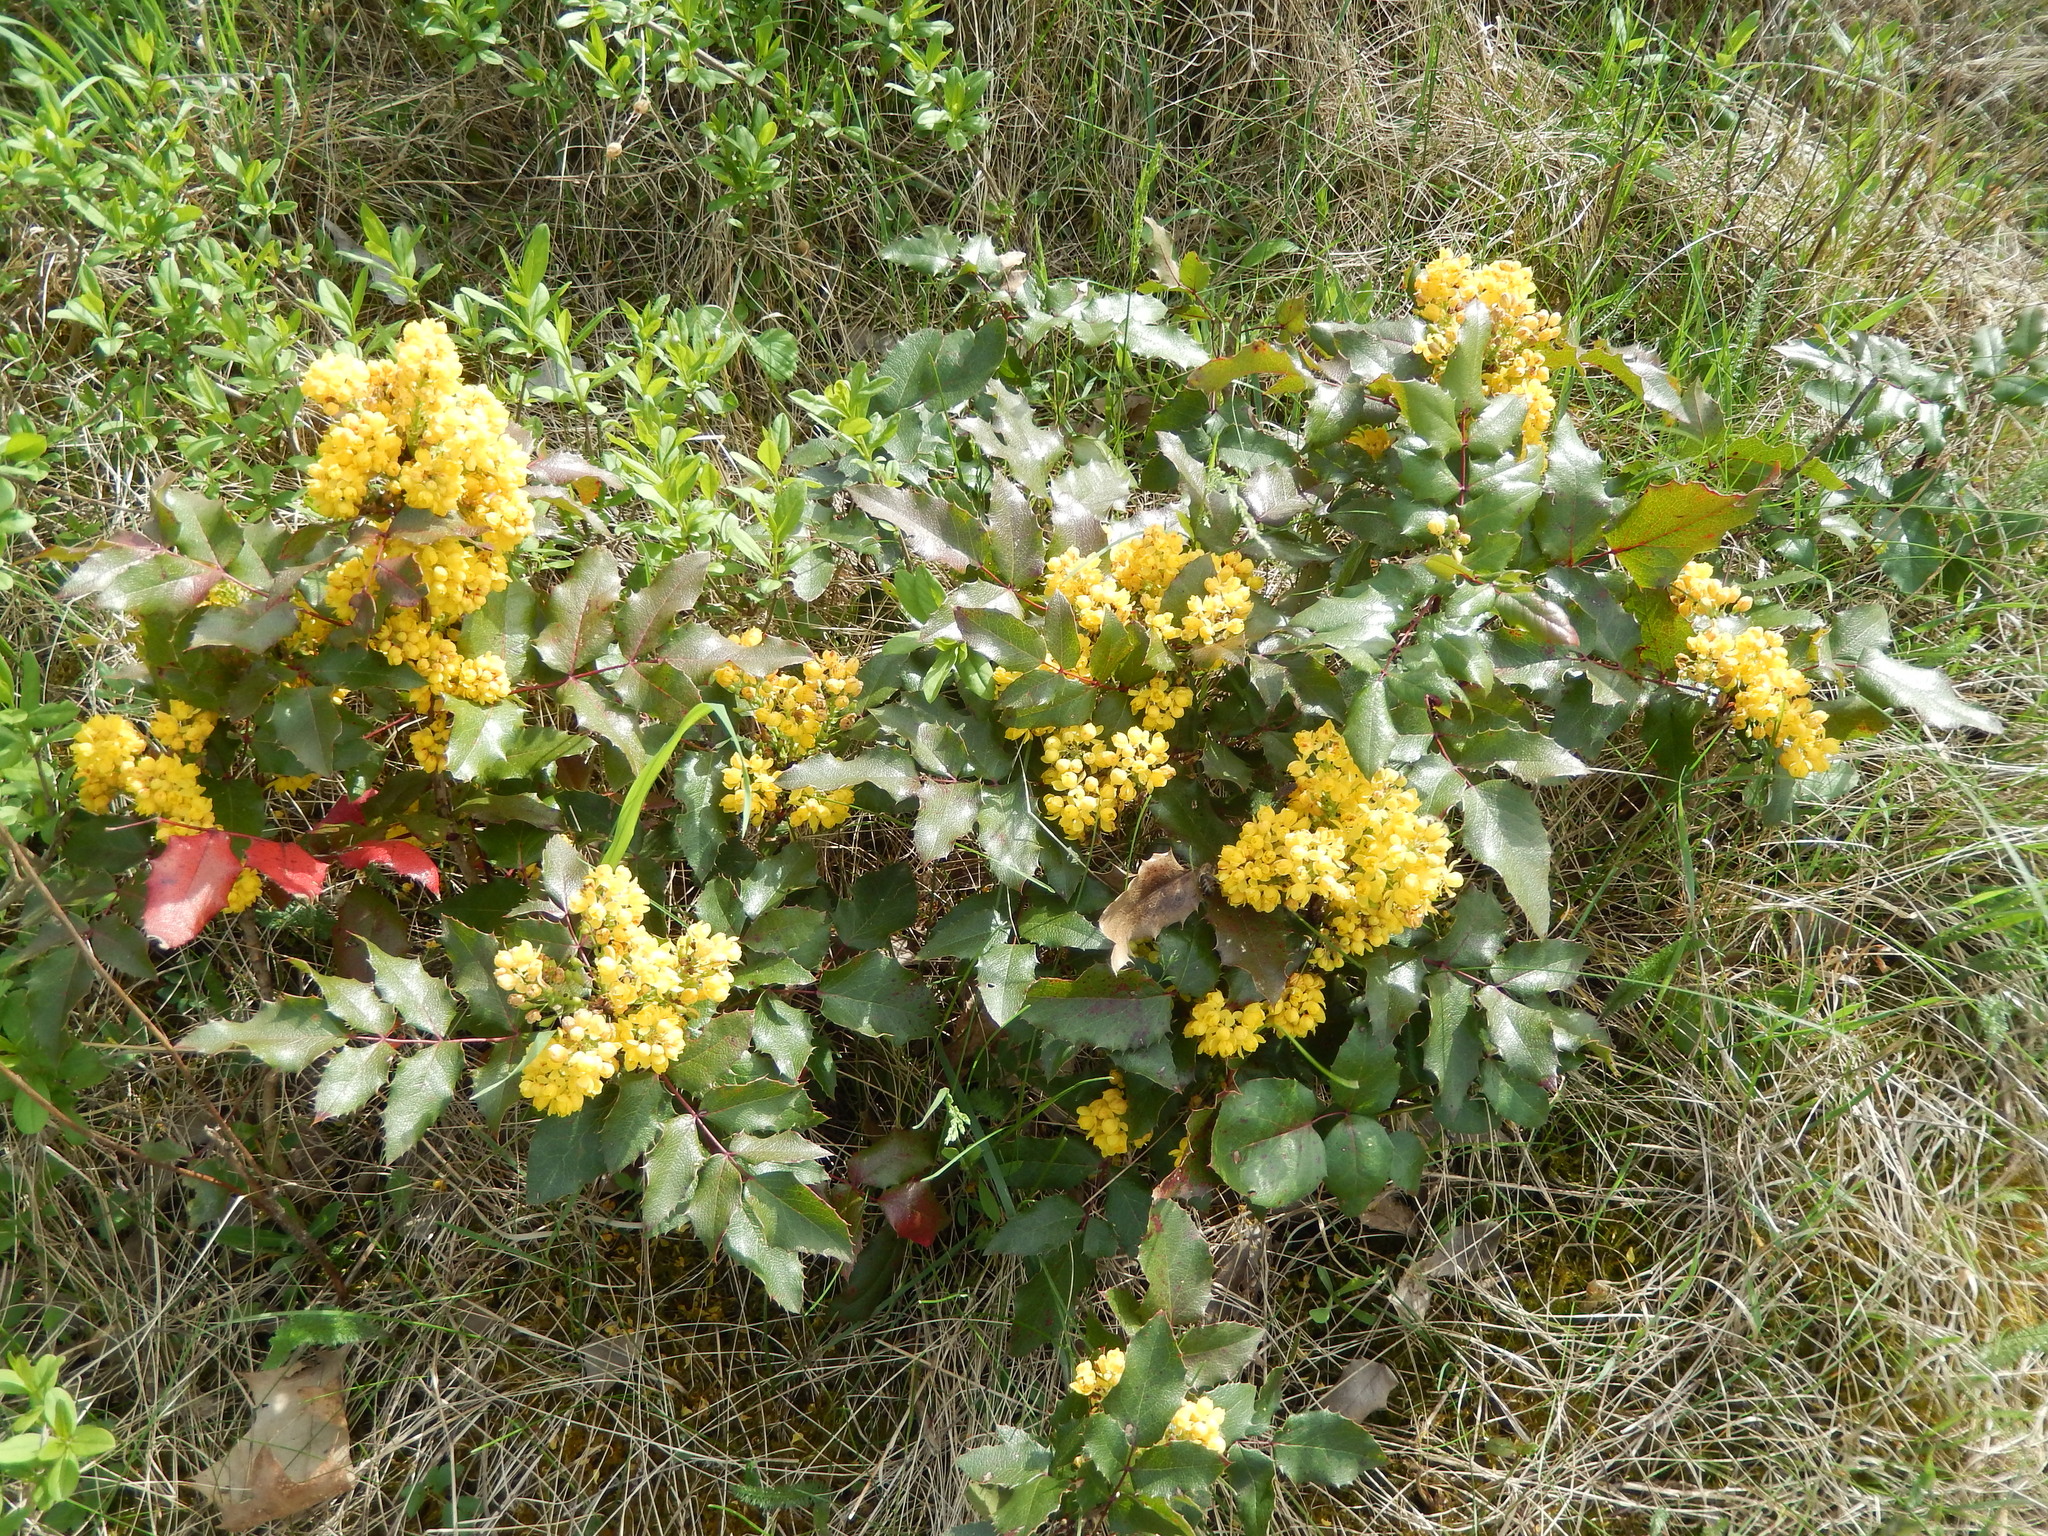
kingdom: Plantae
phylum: Tracheophyta
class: Magnoliopsida
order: Ranunculales
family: Berberidaceae
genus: Mahonia
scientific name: Mahonia aquifolium
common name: Oregon-grape
